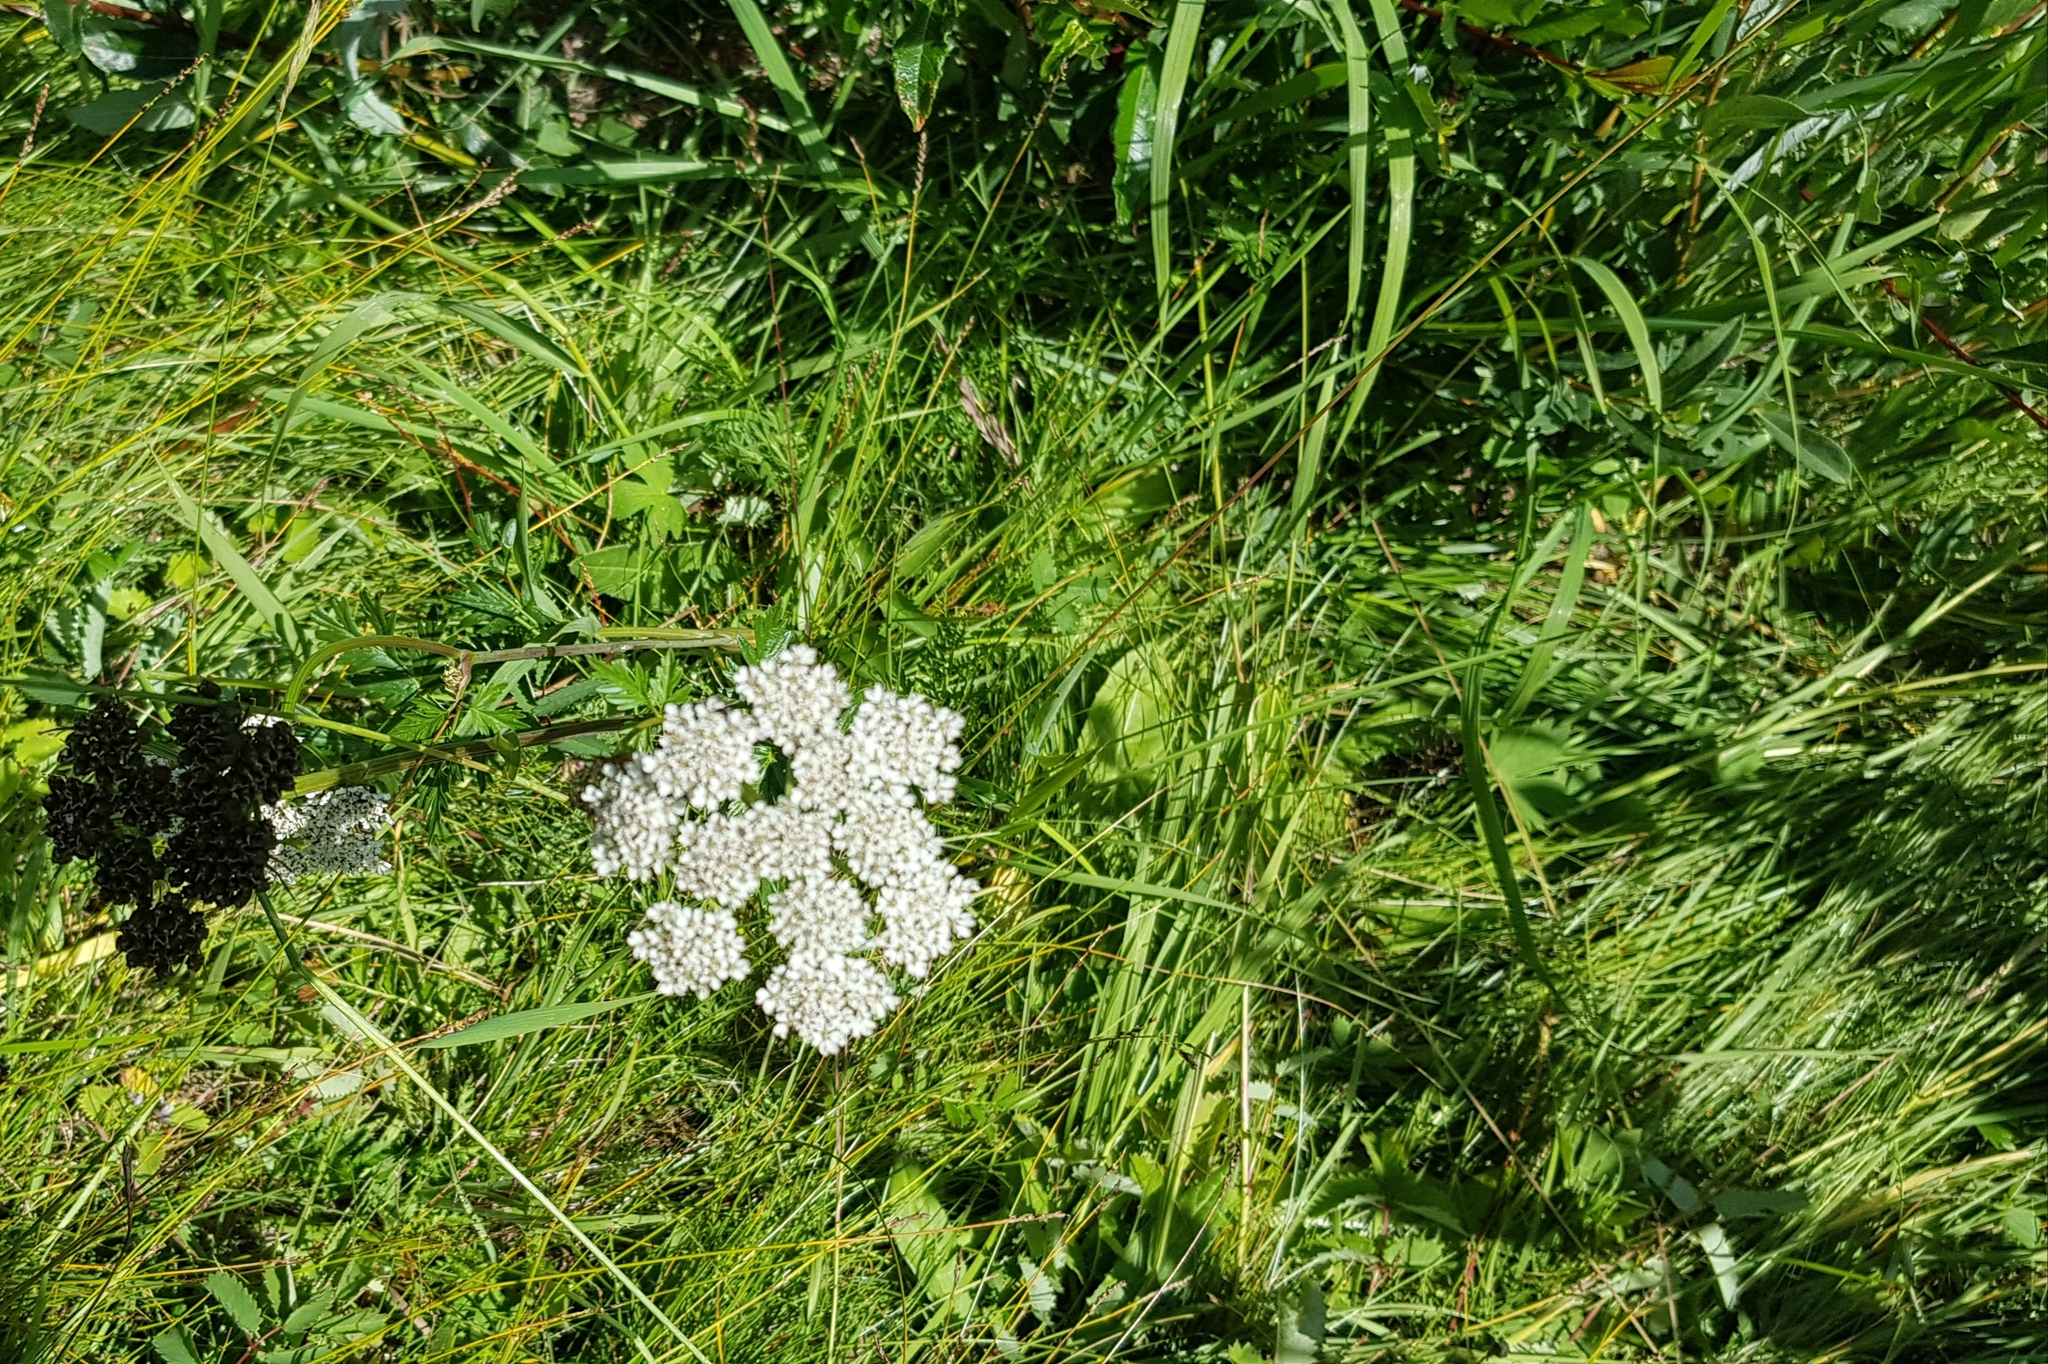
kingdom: Plantae
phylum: Tracheophyta
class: Magnoliopsida
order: Apiales
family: Apiaceae
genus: Conioselinum
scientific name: Conioselinum tataricum
